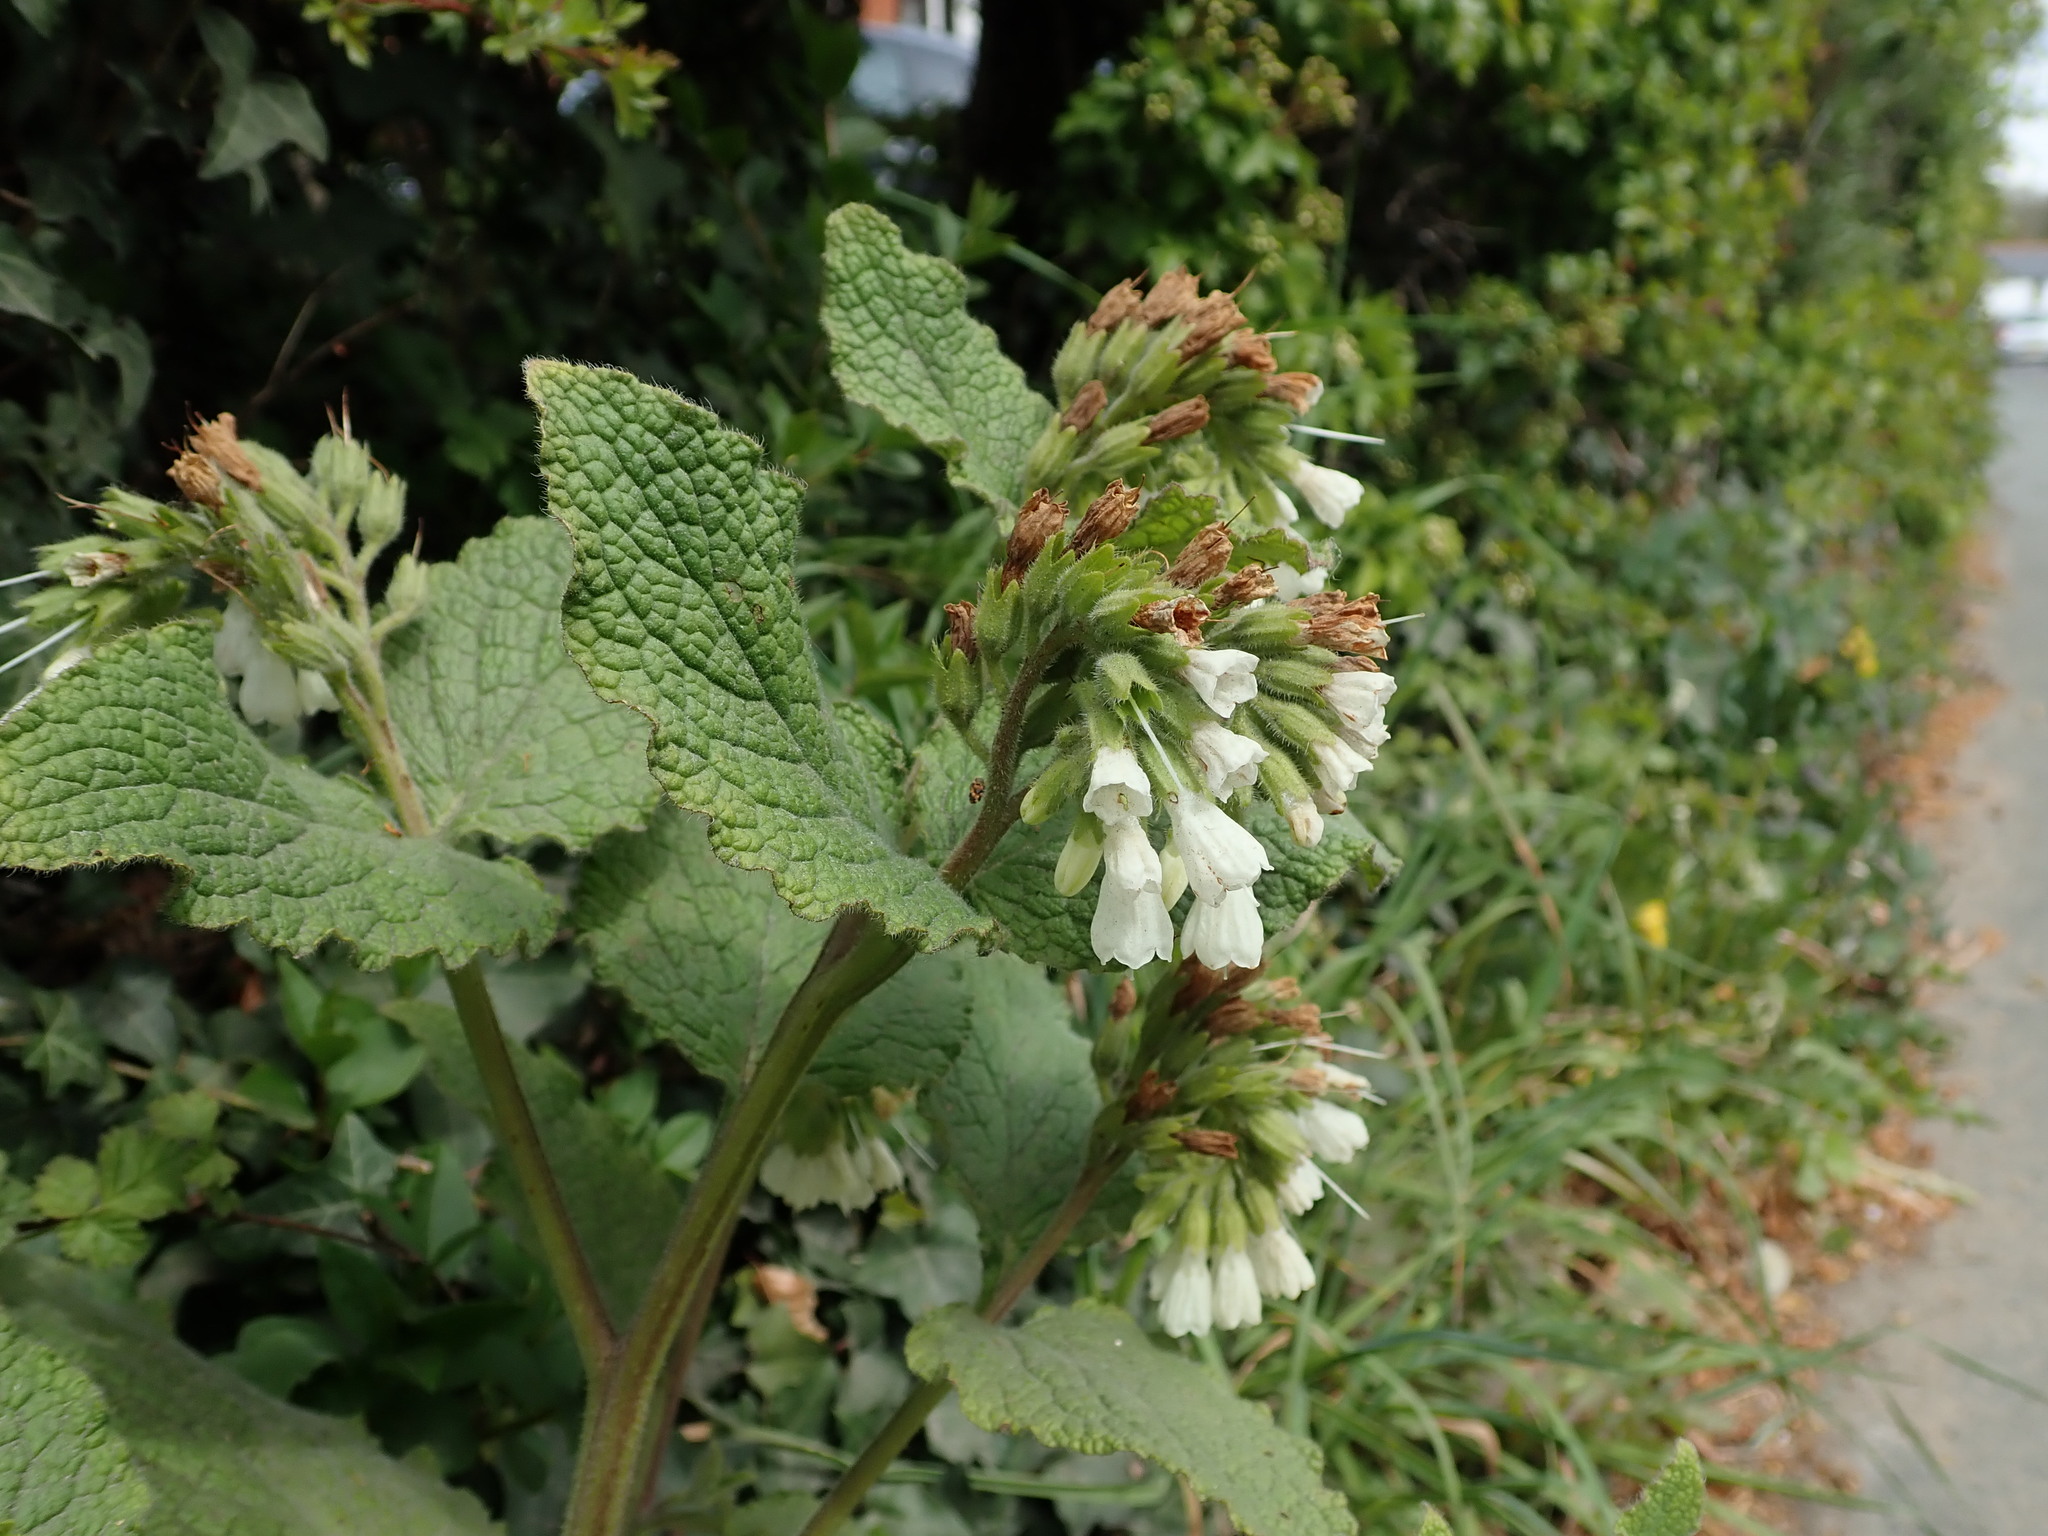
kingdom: Plantae
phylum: Tracheophyta
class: Magnoliopsida
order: Boraginales
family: Boraginaceae
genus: Symphytum
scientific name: Symphytum orientale
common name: White comfrey
